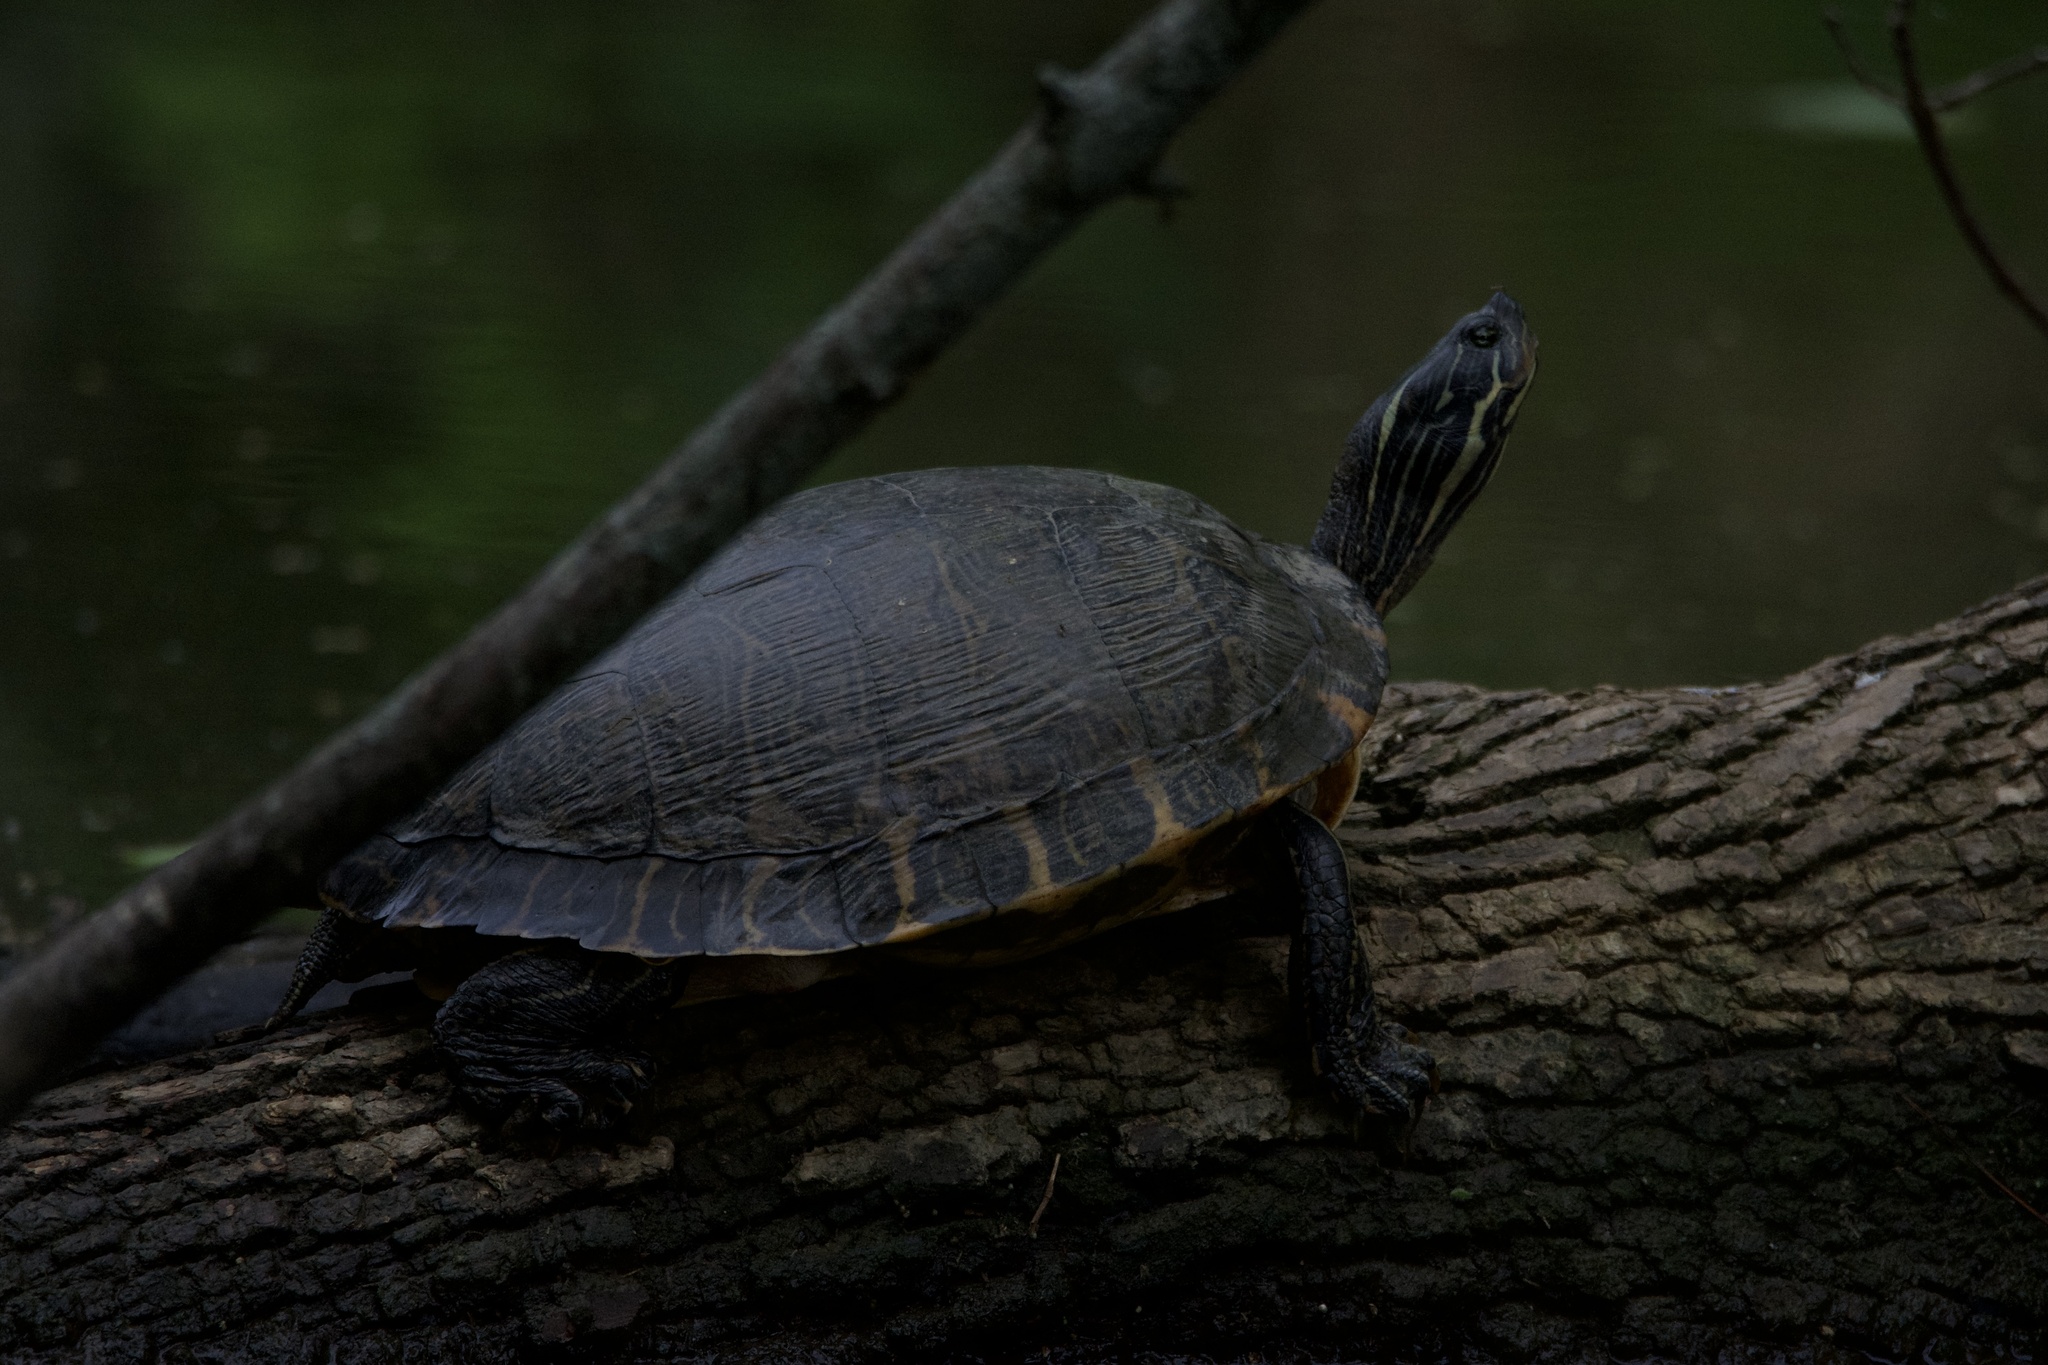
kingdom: Animalia
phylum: Chordata
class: Testudines
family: Emydidae
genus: Pseudemys
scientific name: Pseudemys concinna
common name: Eastern river cooter
